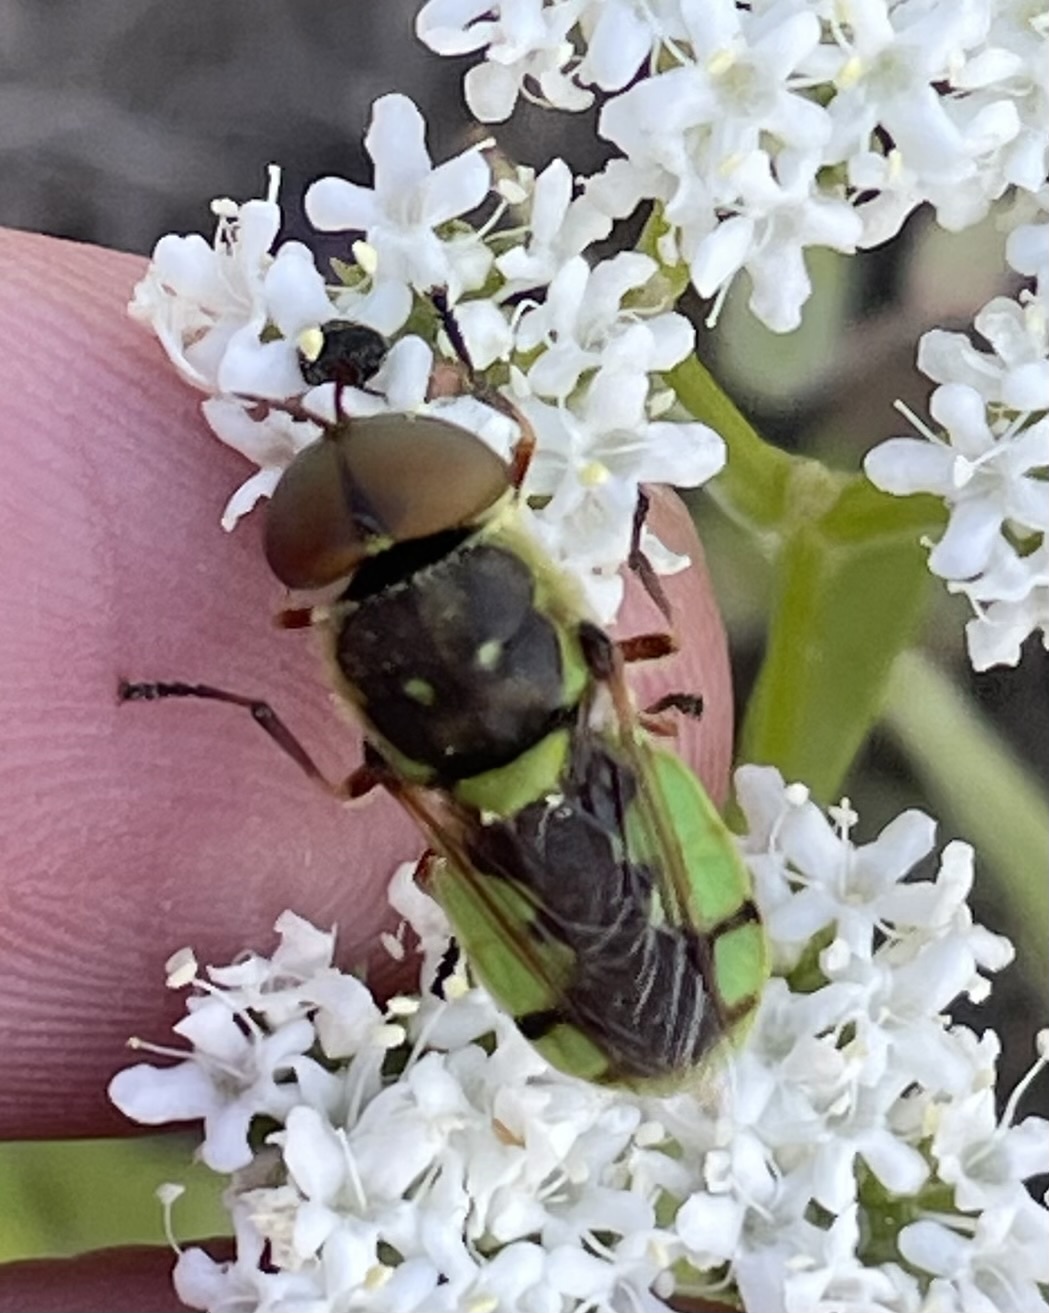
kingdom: Animalia
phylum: Arthropoda
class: Insecta
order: Diptera
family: Stratiomyidae
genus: Hedriodiscus
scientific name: Hedriodiscus binotatus
